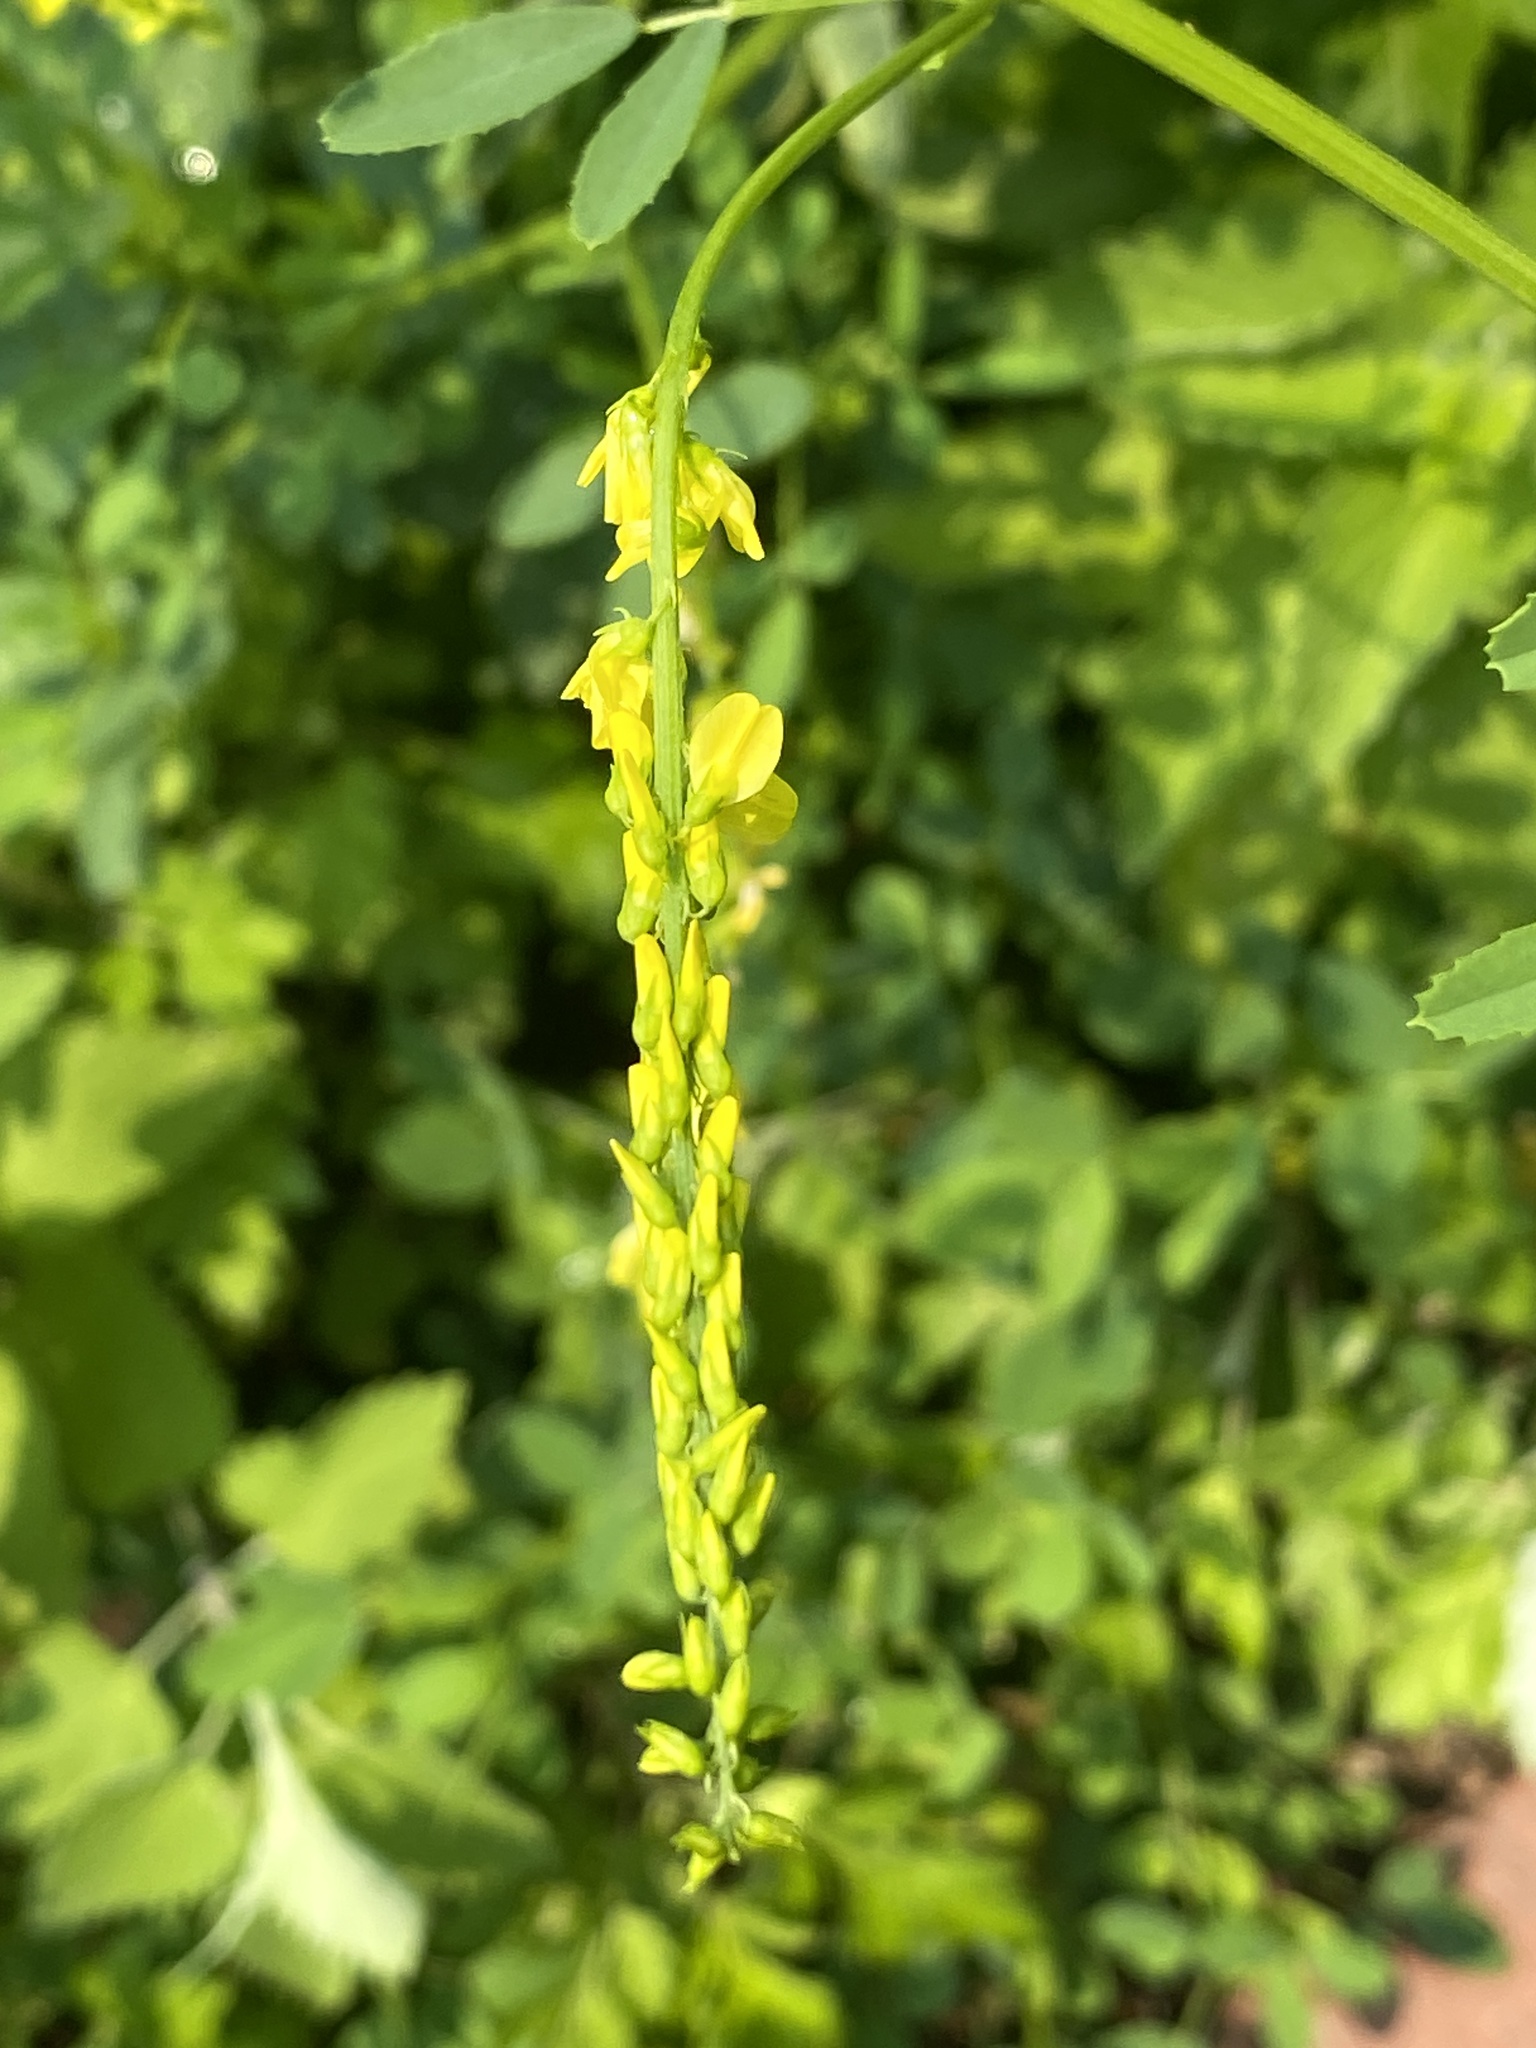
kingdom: Plantae
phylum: Tracheophyta
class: Magnoliopsida
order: Fabales
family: Fabaceae
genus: Melilotus
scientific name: Melilotus officinalis
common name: Sweetclover
